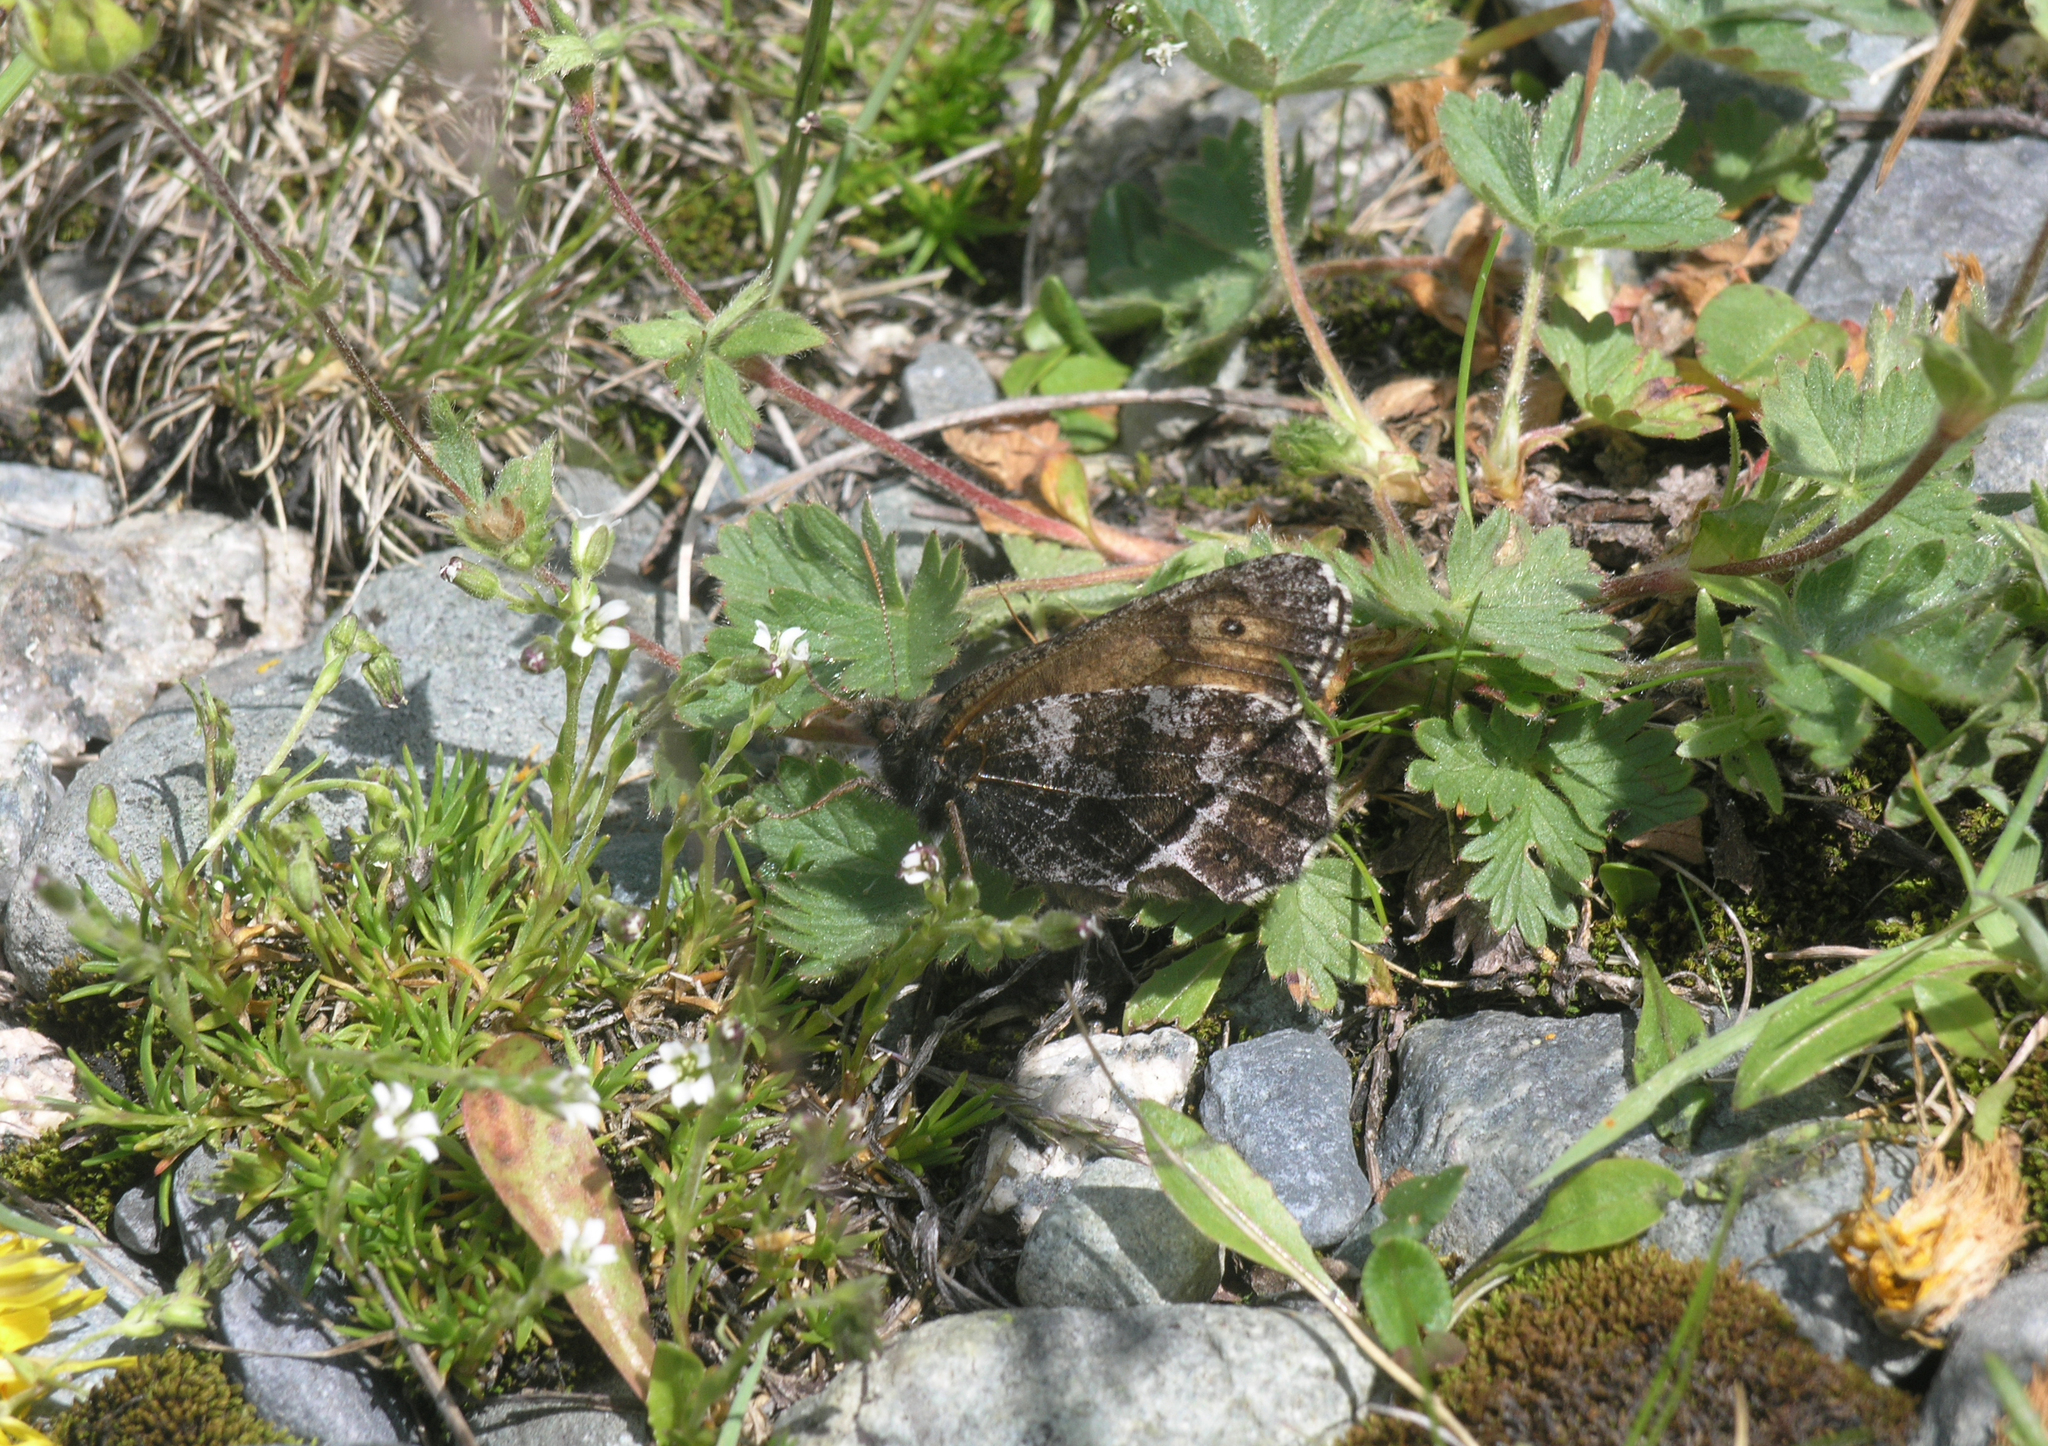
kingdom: Animalia
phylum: Arthropoda
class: Insecta
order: Lepidoptera
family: Nymphalidae
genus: Oeneis
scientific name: Oeneis norna
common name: Norse grayling
